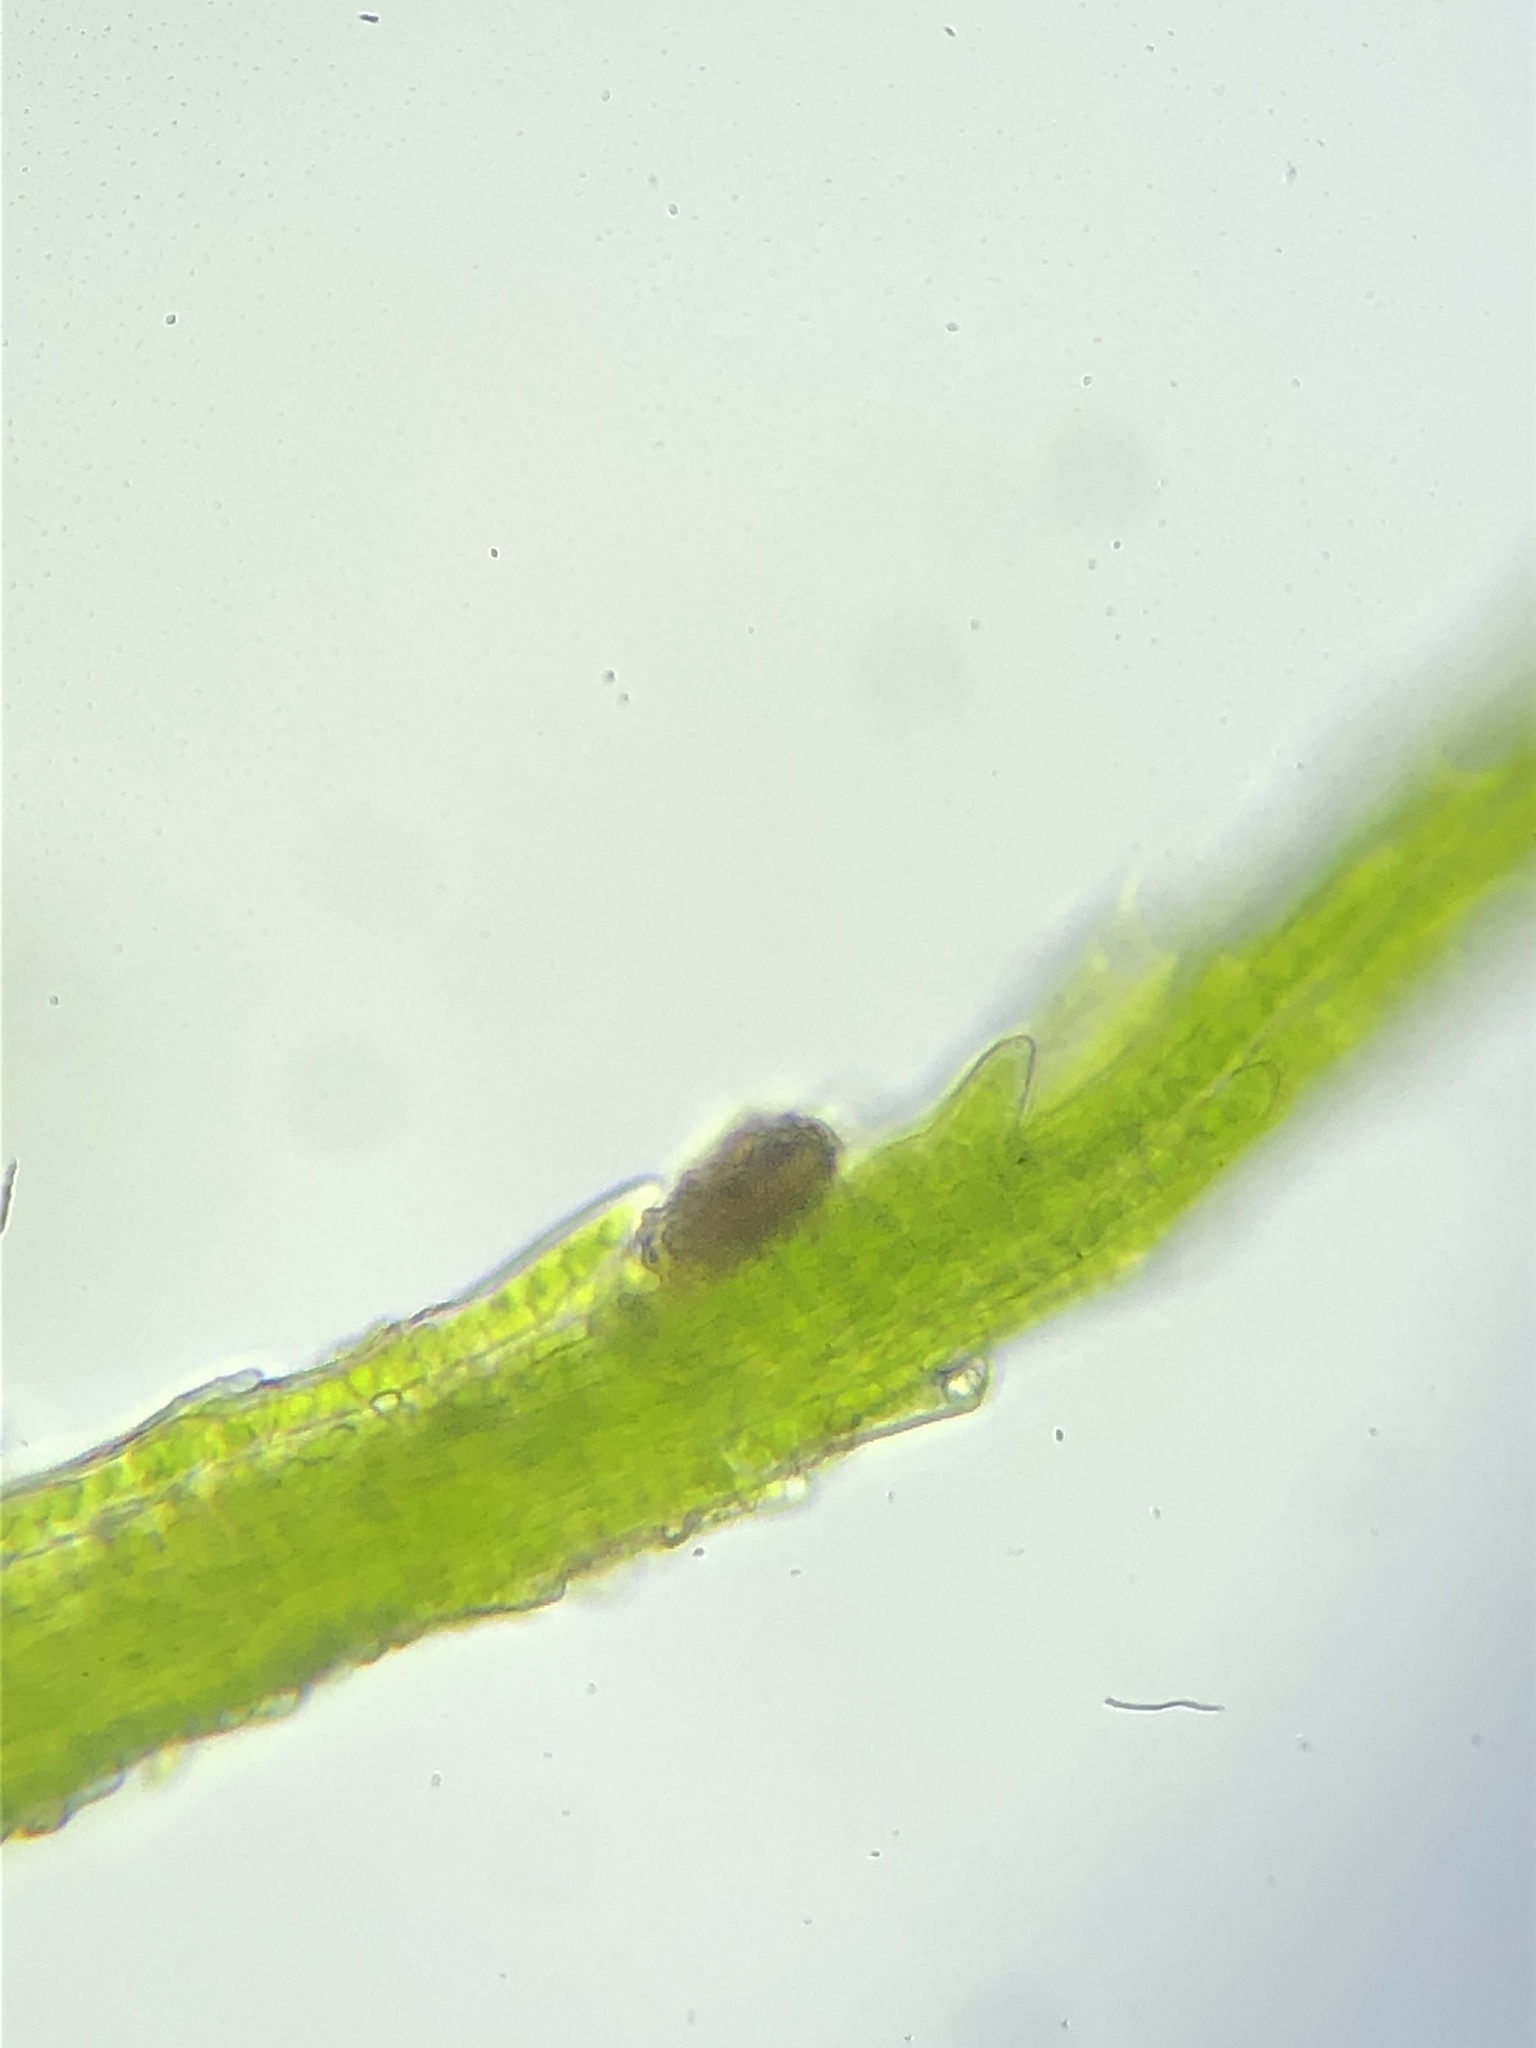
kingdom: Plantae
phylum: Bryophyta
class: Bryopsida
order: Dicranales
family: Dicranellaceae
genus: Dicranella
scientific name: Dicranella heteromalla
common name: Silky forklet moss
